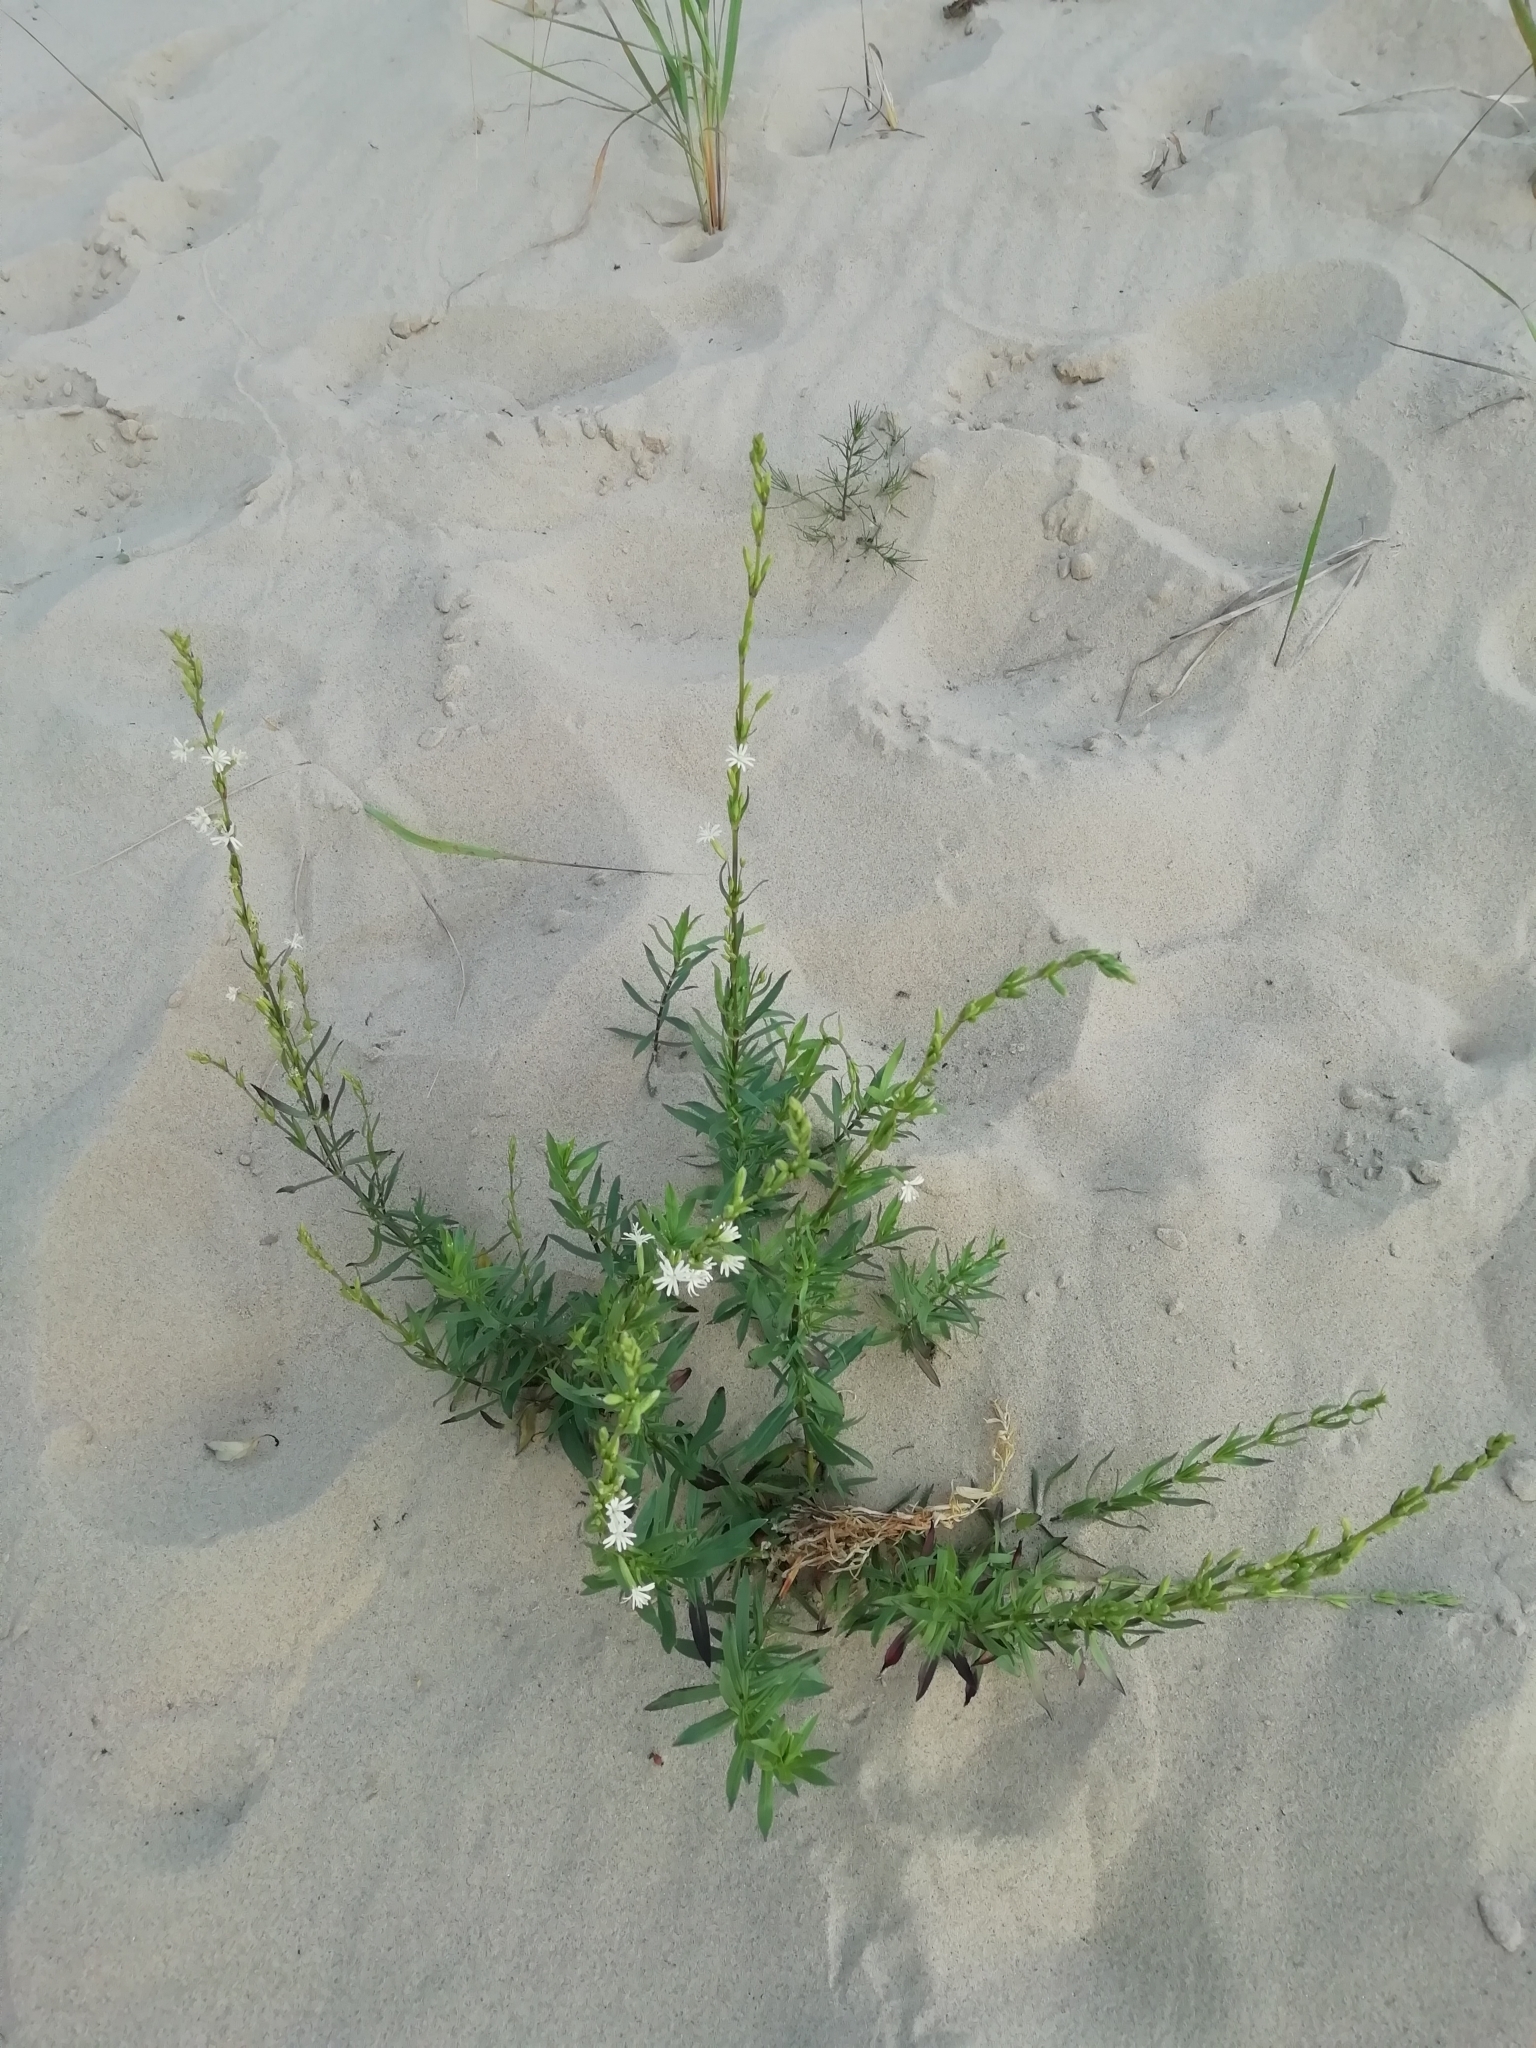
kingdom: Plantae
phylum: Tracheophyta
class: Magnoliopsida
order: Caryophyllales
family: Caryophyllaceae
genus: Silene
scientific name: Silene tatarica
